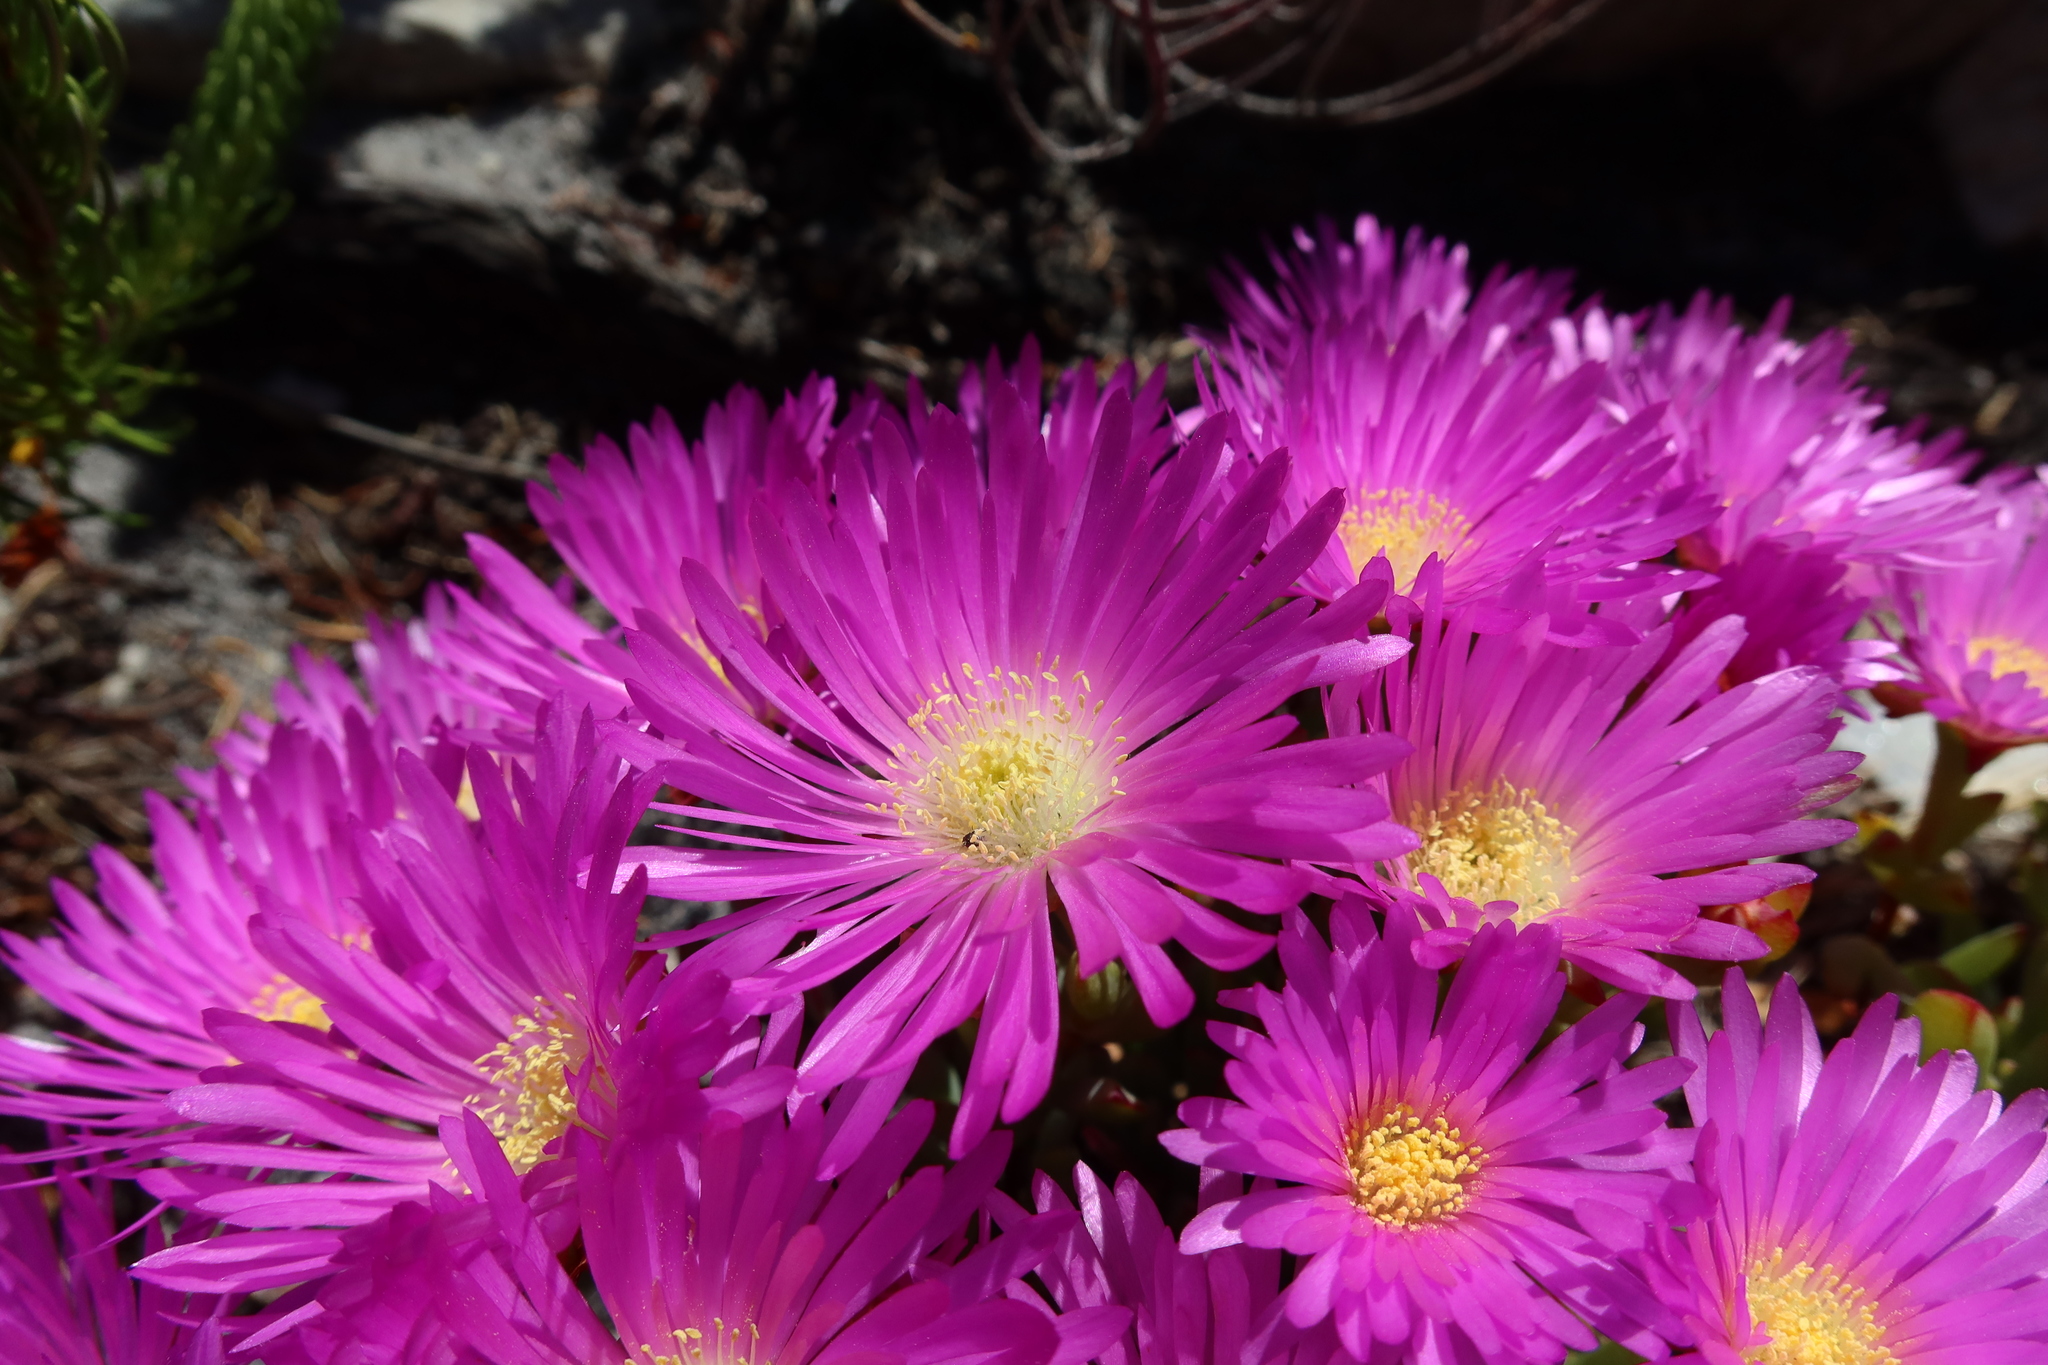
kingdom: Plantae
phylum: Tracheophyta
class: Magnoliopsida
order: Caryophyllales
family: Aizoaceae
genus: Oscularia
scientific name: Oscularia falciformis
